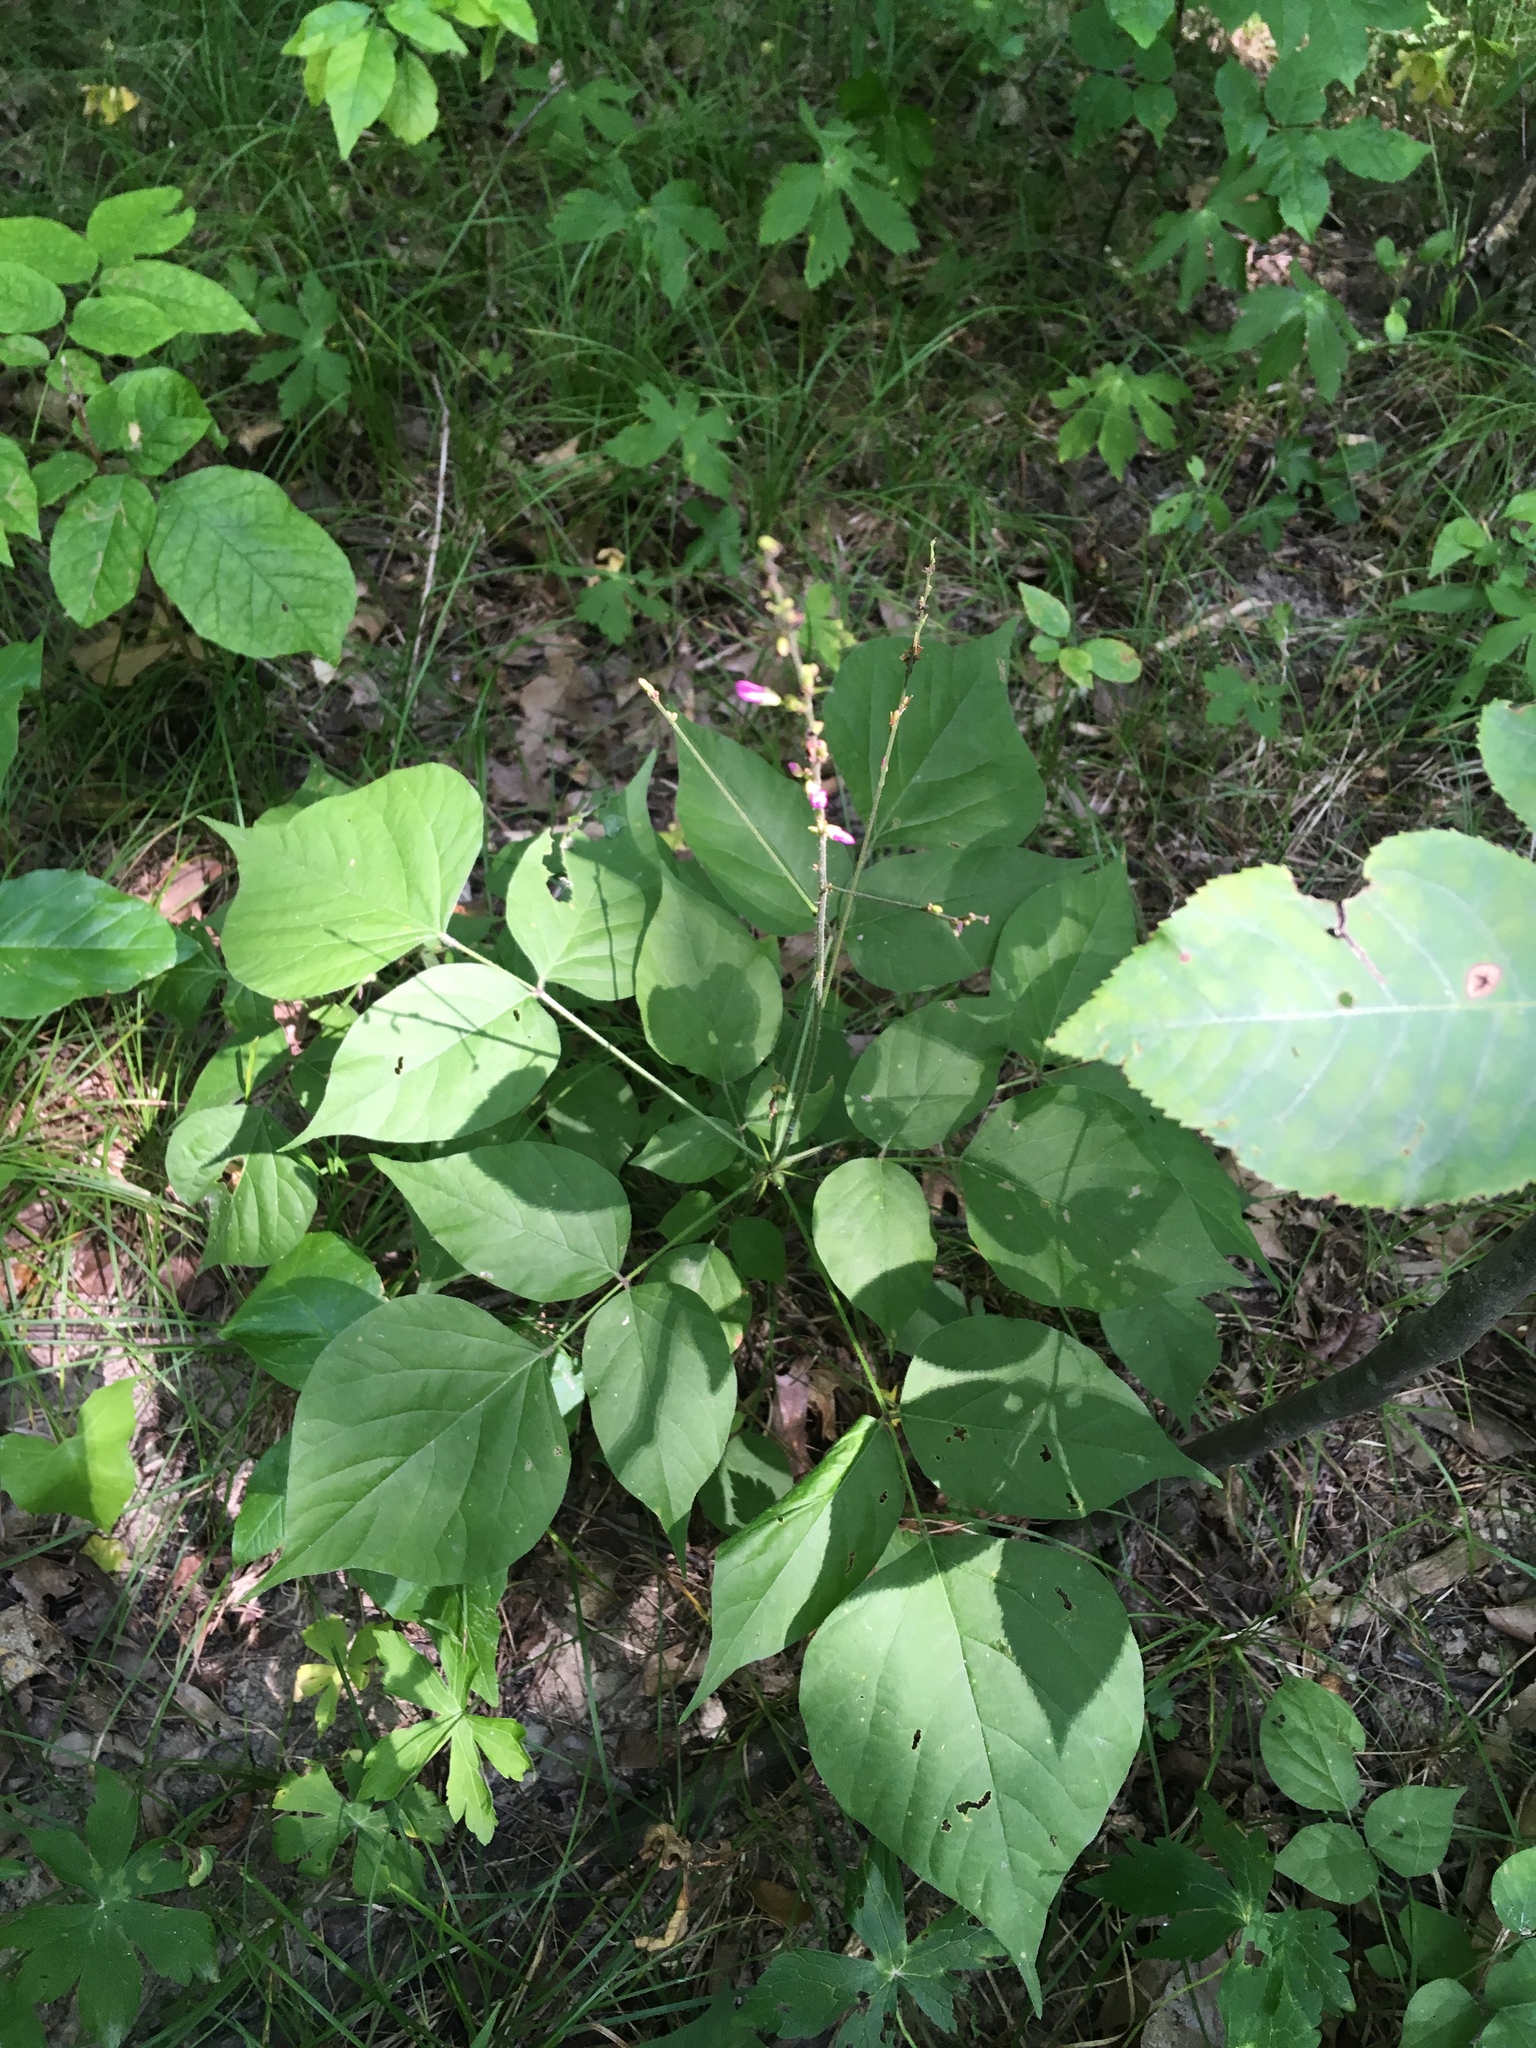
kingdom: Plantae
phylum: Tracheophyta
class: Magnoliopsida
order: Fabales
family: Fabaceae
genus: Hylodesmum
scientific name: Hylodesmum glutinosum
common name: Clustered-leaved tick-trefoil
